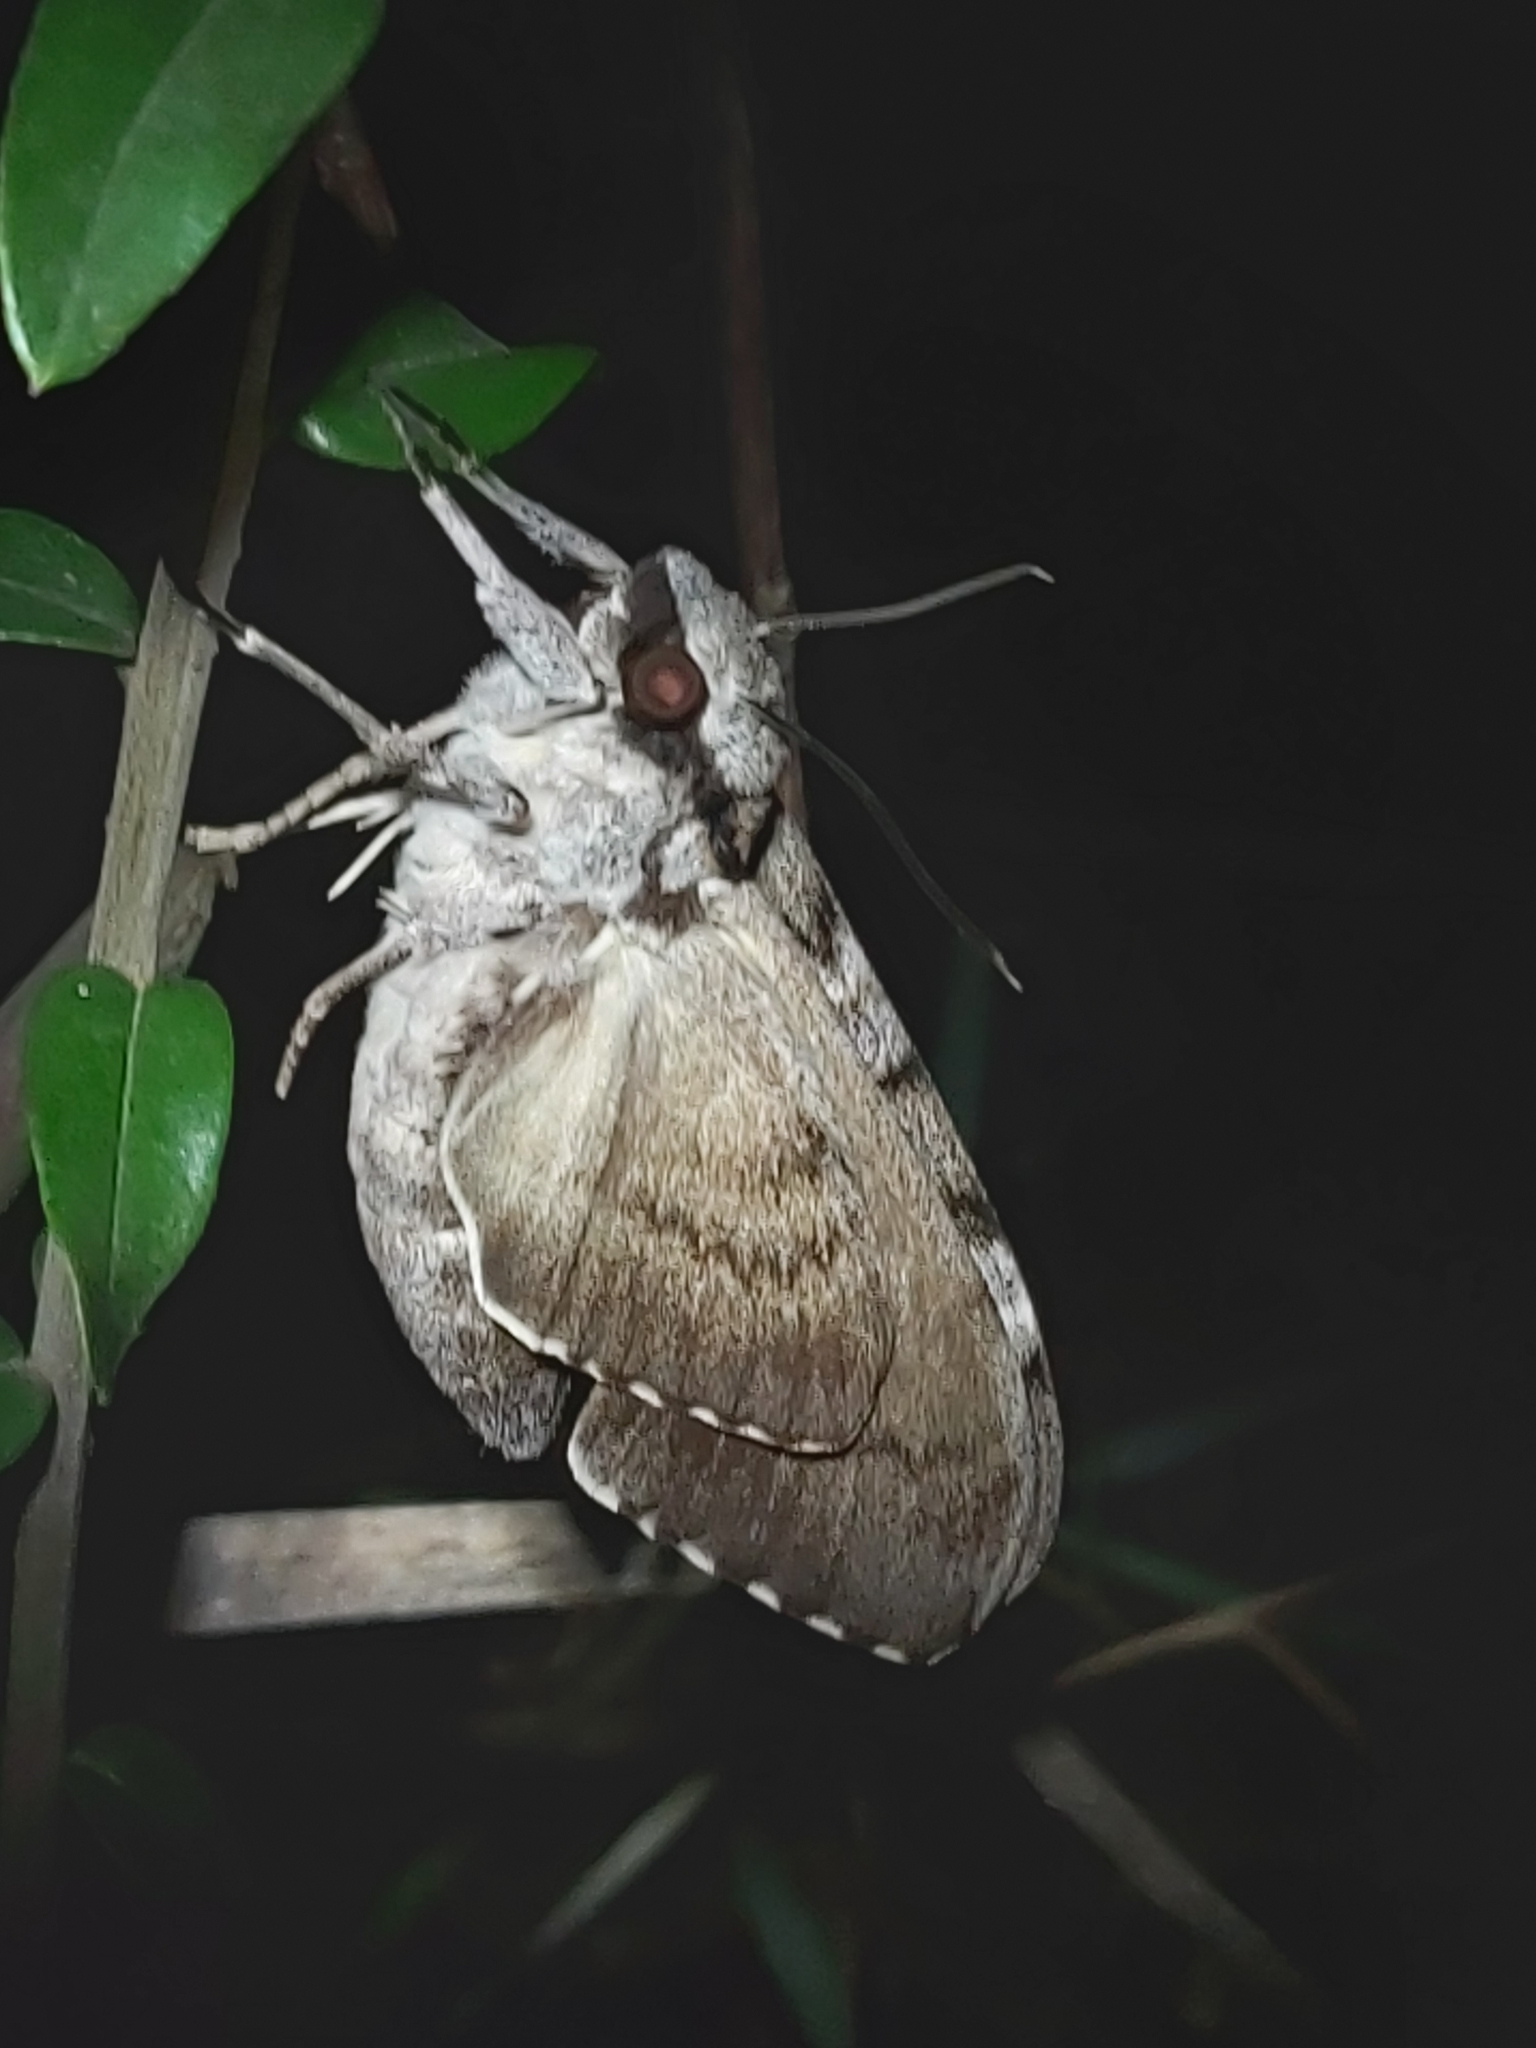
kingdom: Animalia
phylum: Arthropoda
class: Insecta
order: Lepidoptera
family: Sphingidae
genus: Psilogramma
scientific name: Psilogramma casuarinae
